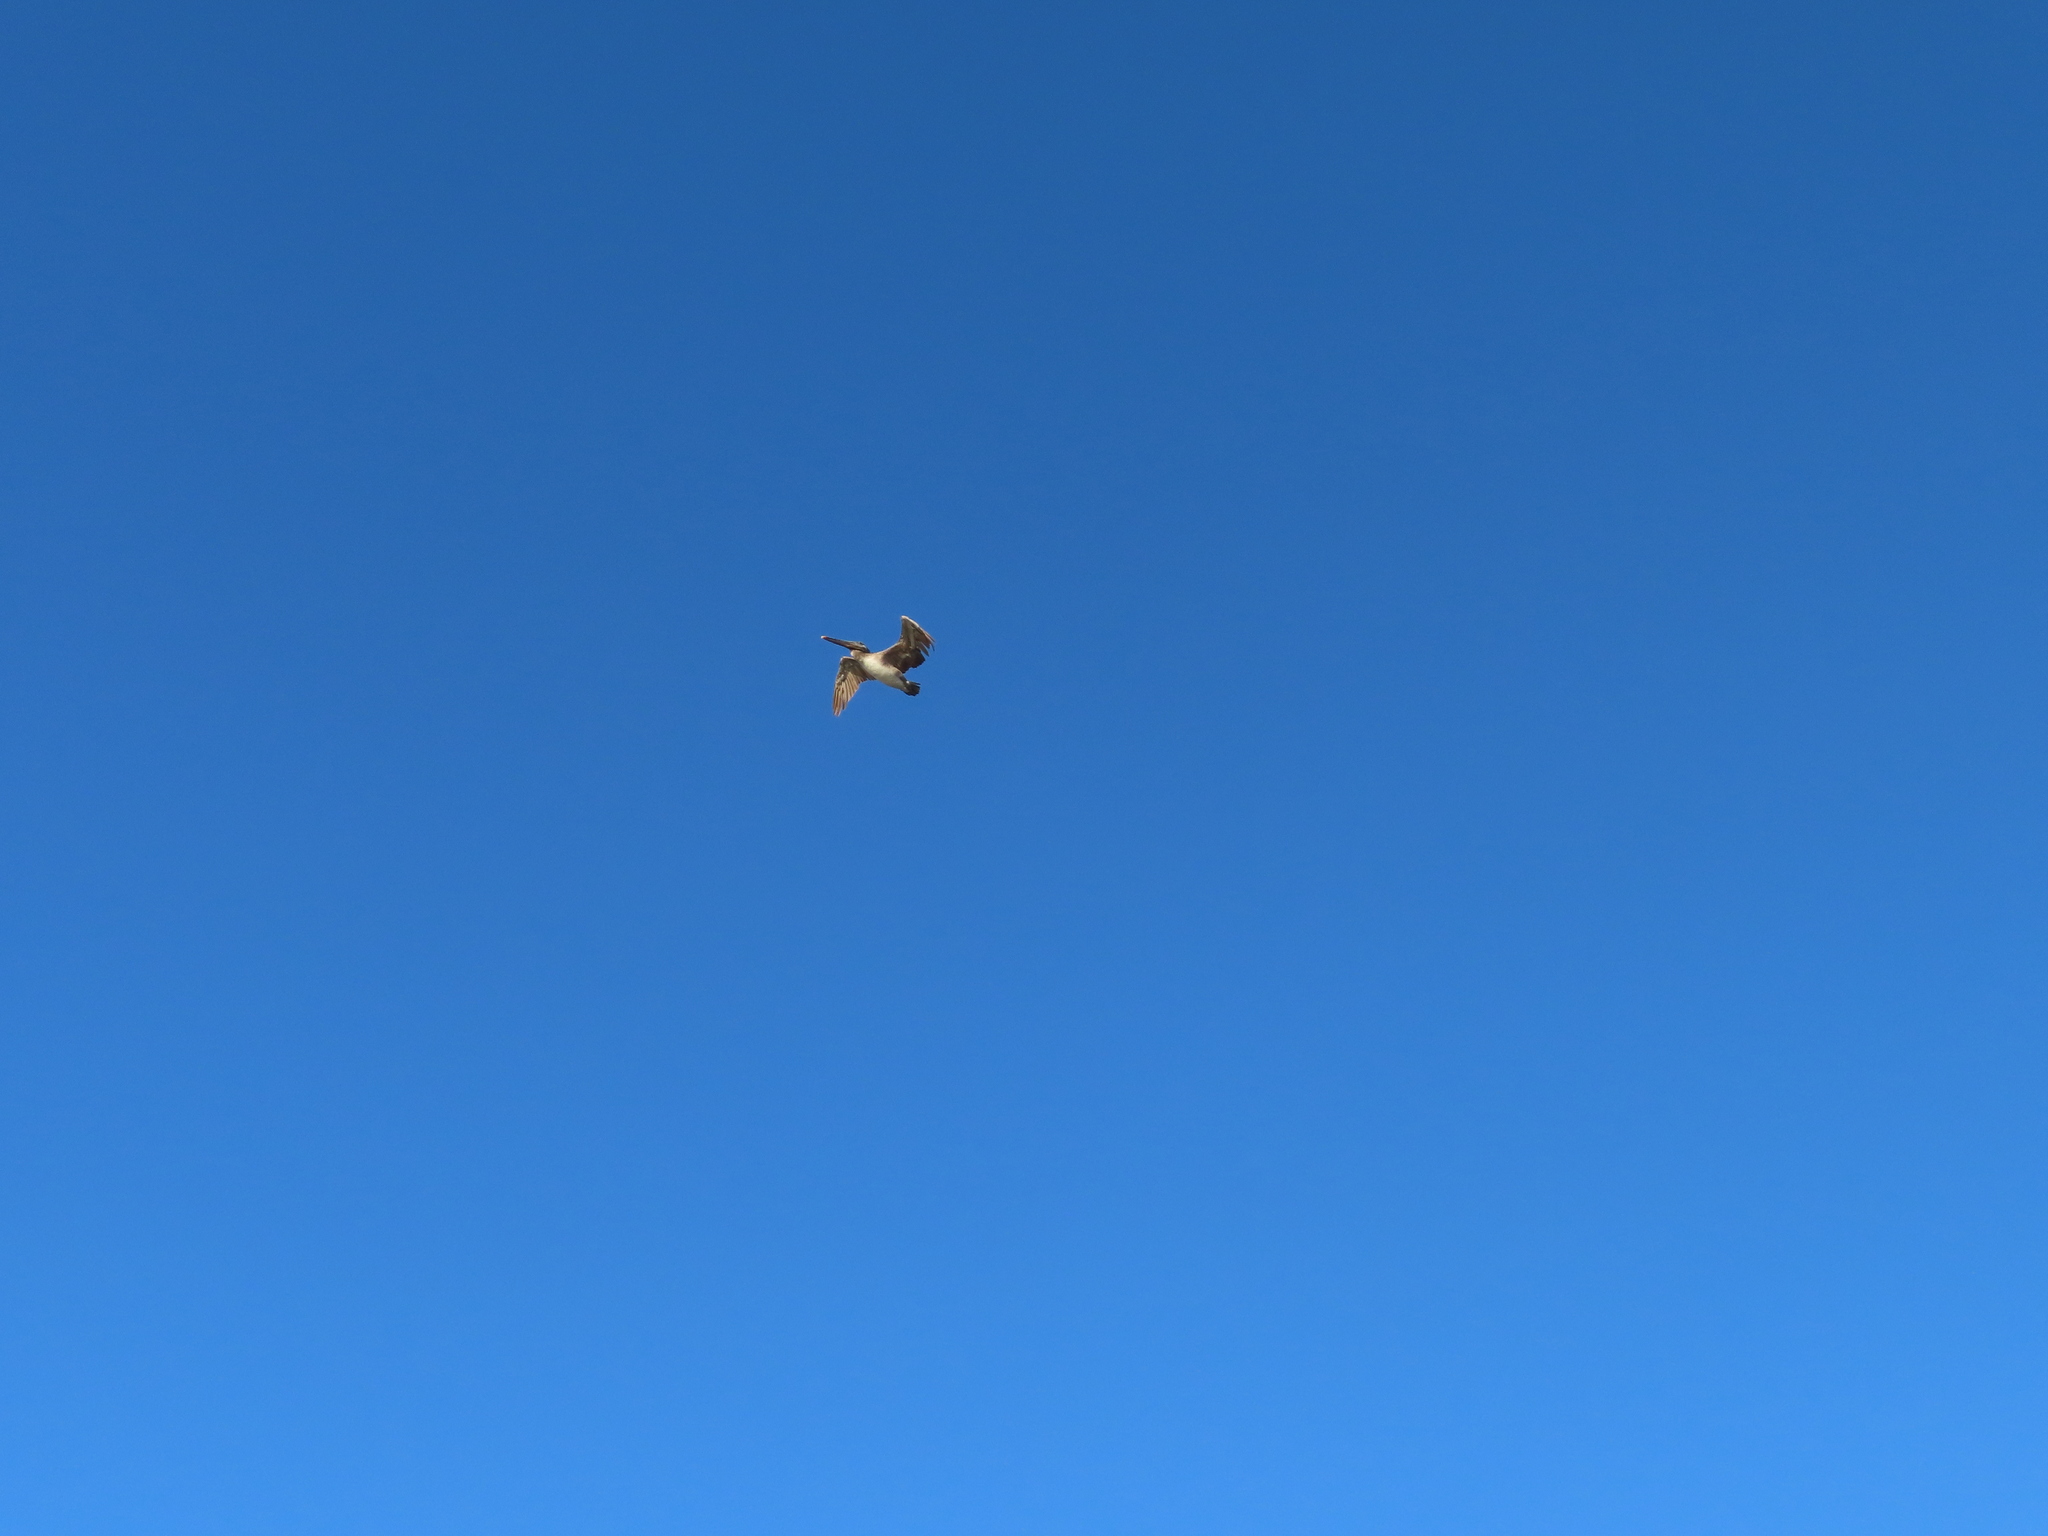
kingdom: Animalia
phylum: Chordata
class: Aves
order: Pelecaniformes
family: Pelecanidae
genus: Pelecanus
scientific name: Pelecanus occidentalis
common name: Brown pelican
